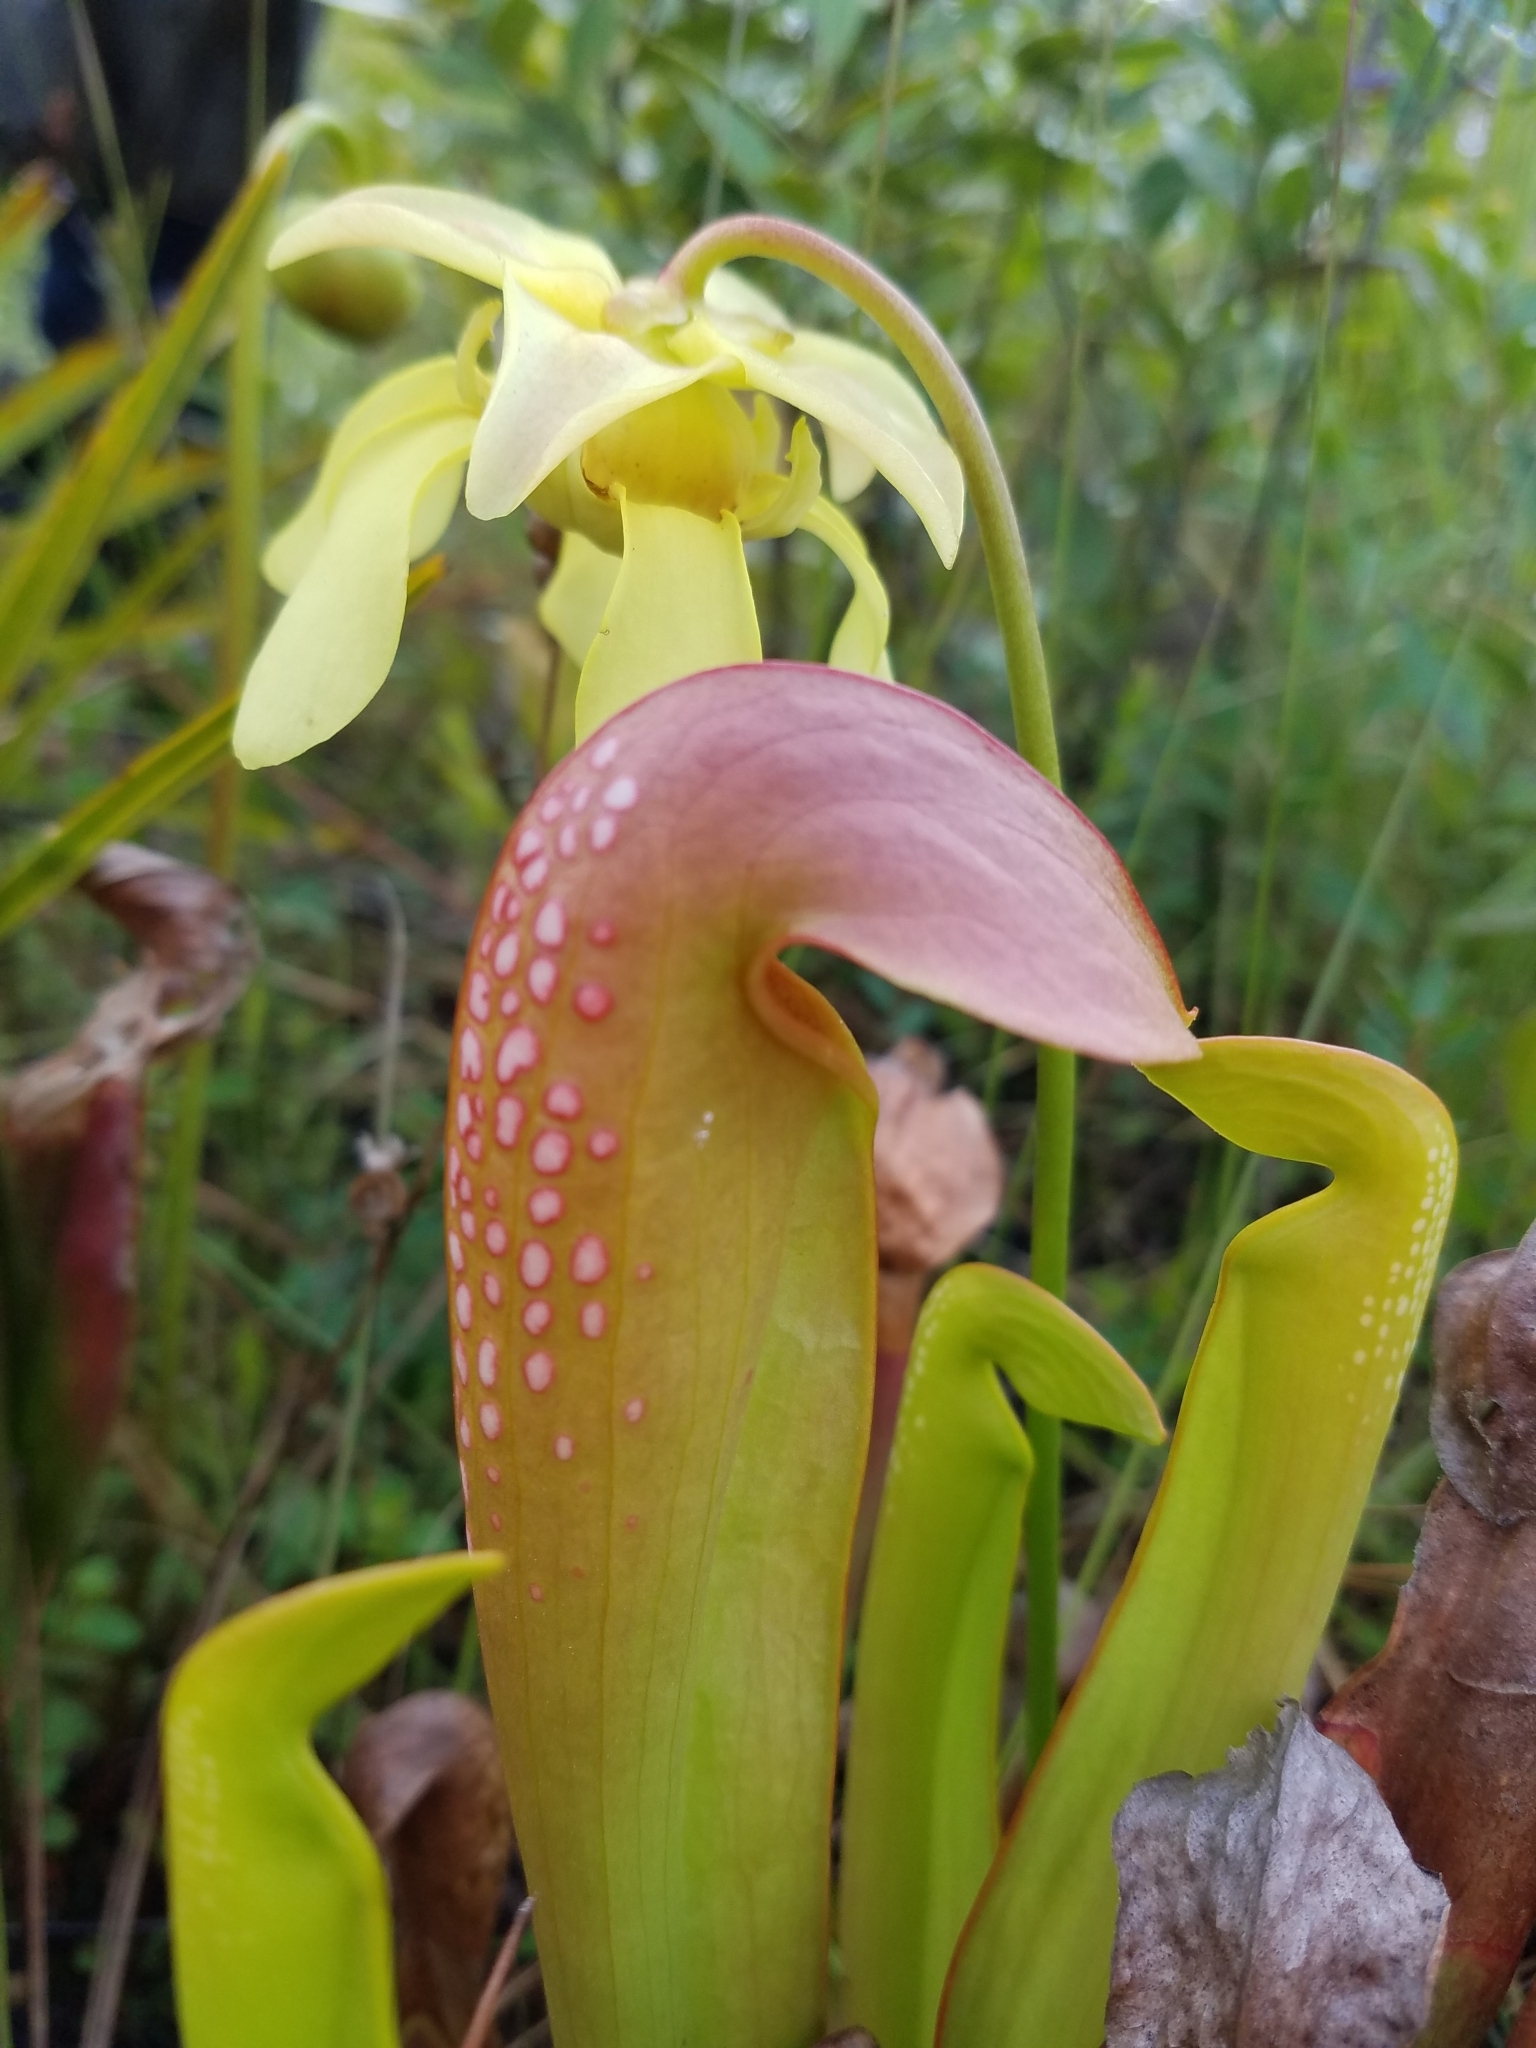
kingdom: Plantae
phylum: Tracheophyta
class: Magnoliopsida
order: Ericales
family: Sarraceniaceae
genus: Sarracenia
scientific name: Sarracenia minor
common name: Rainhat-trumpet
